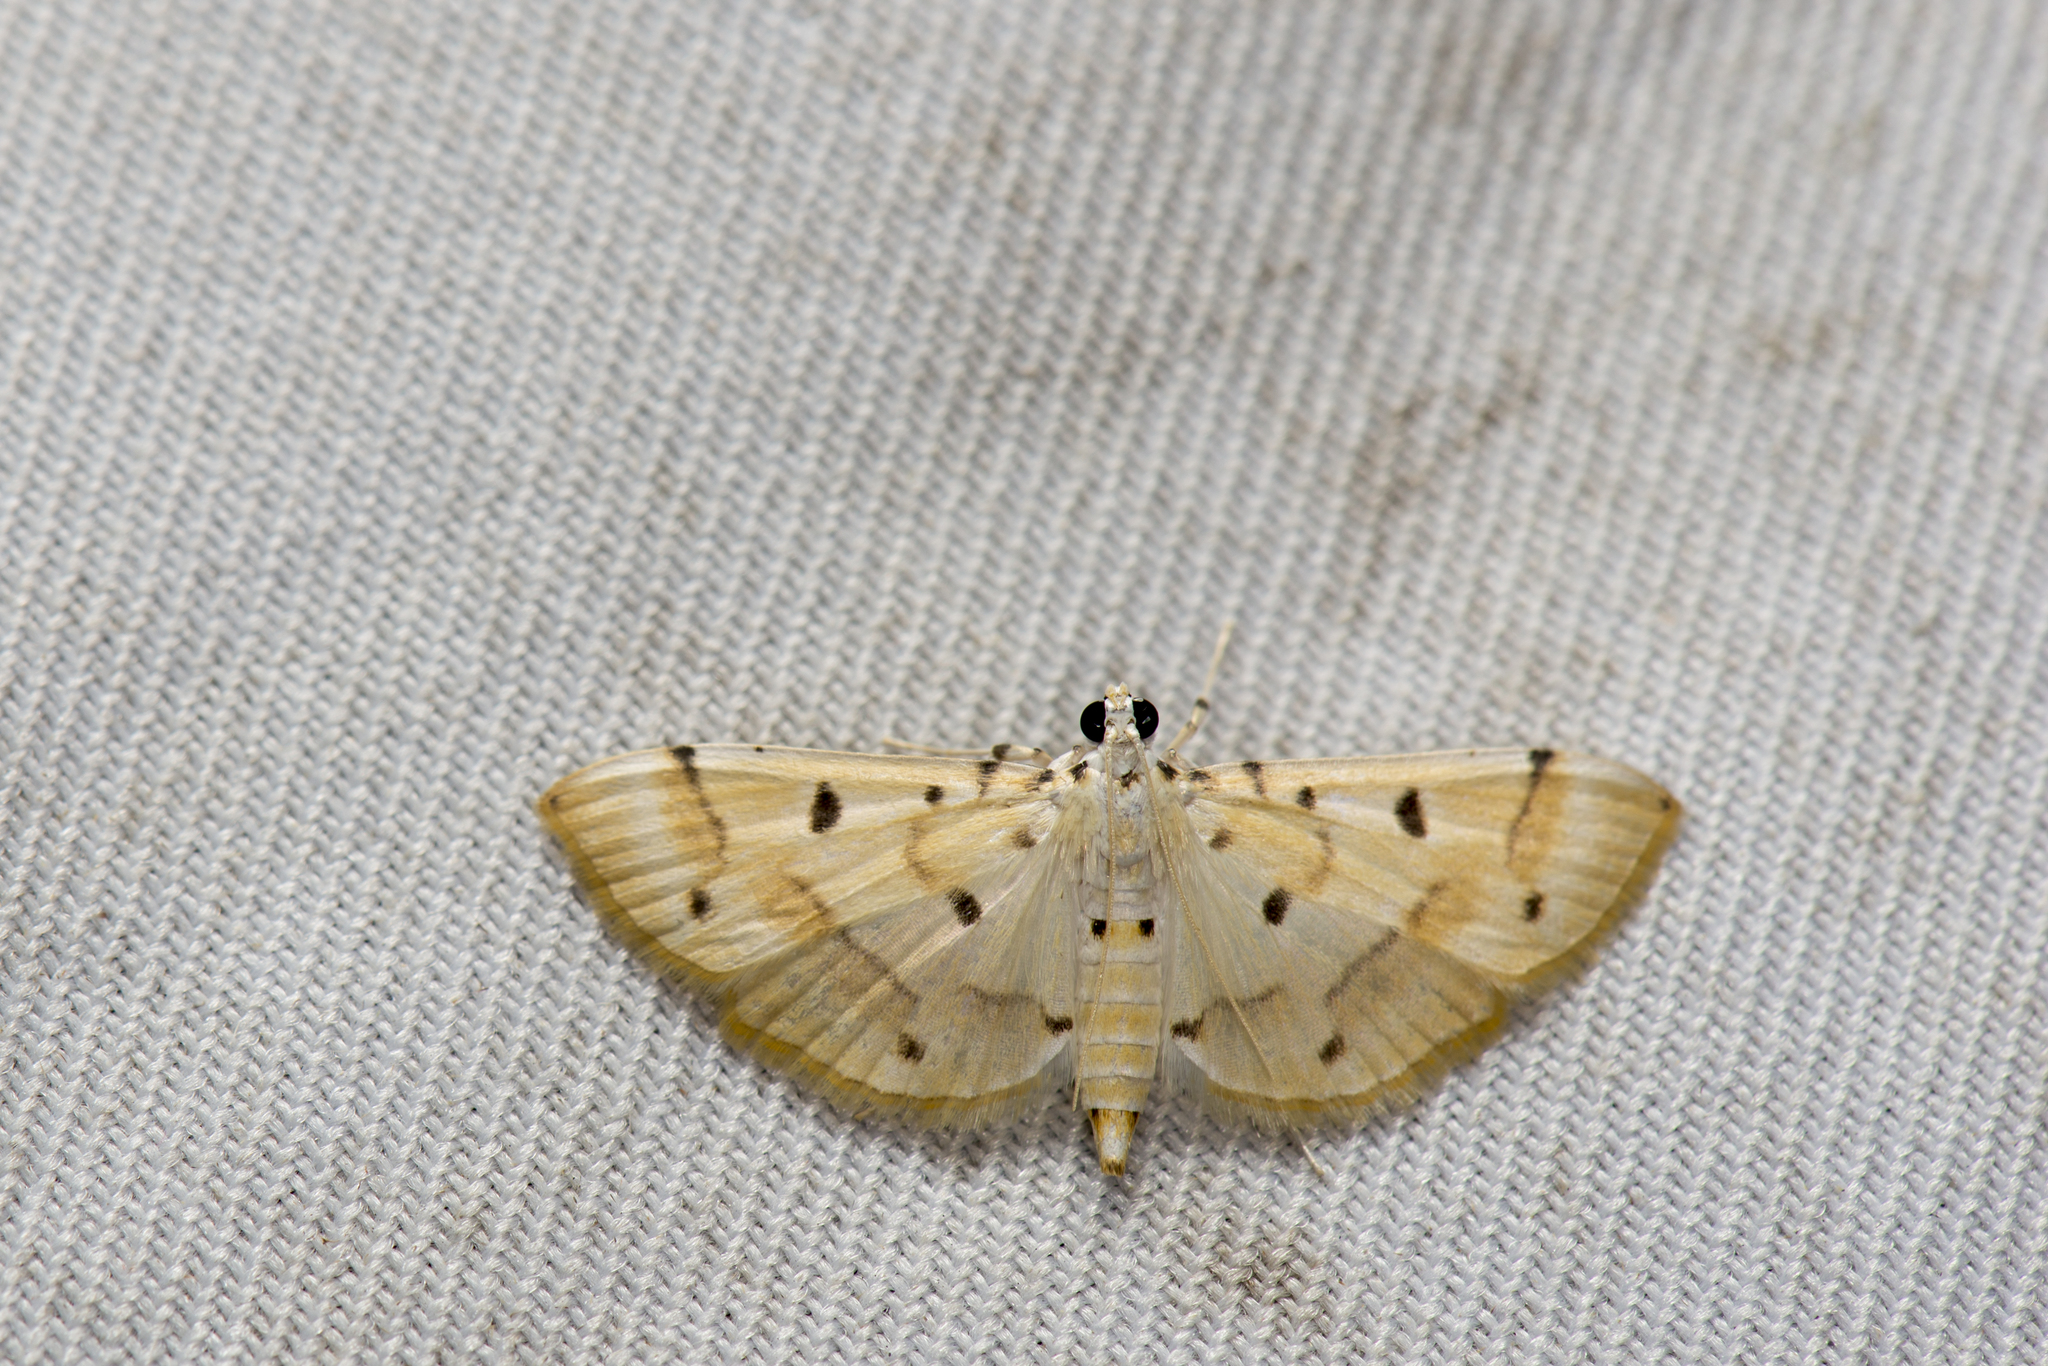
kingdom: Animalia
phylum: Arthropoda
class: Insecta
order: Lepidoptera
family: Crambidae
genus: Pycnarmon
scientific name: Pycnarmon aeriferalis
